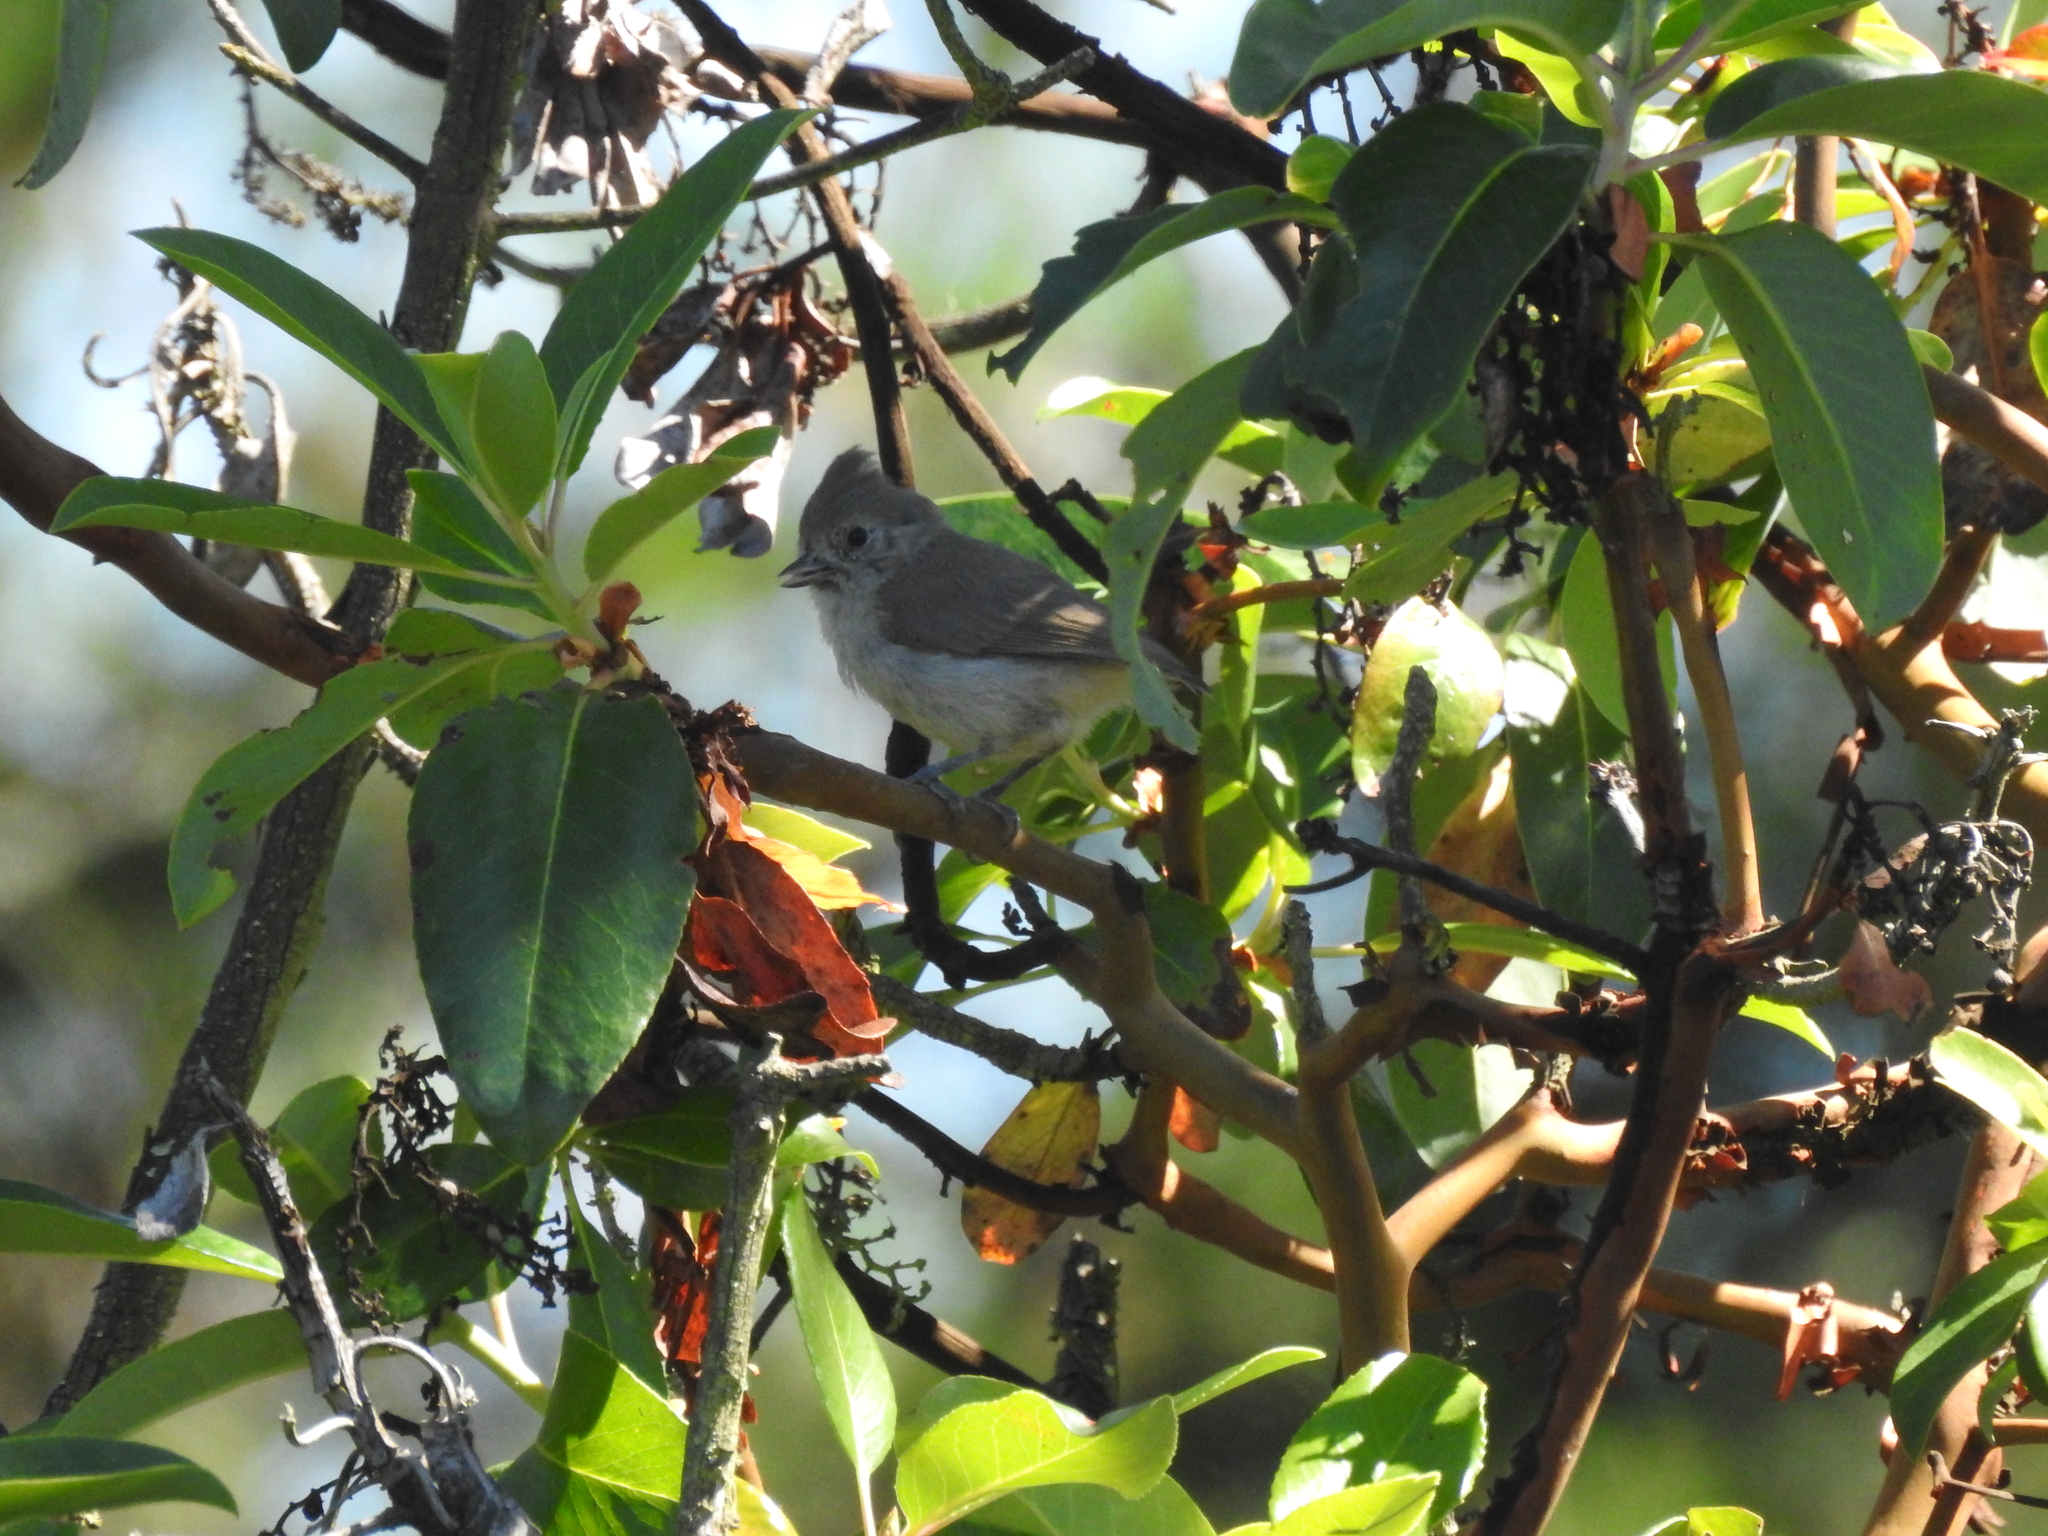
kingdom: Animalia
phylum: Chordata
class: Aves
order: Passeriformes
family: Paridae
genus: Baeolophus
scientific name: Baeolophus inornatus
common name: Oak titmouse
